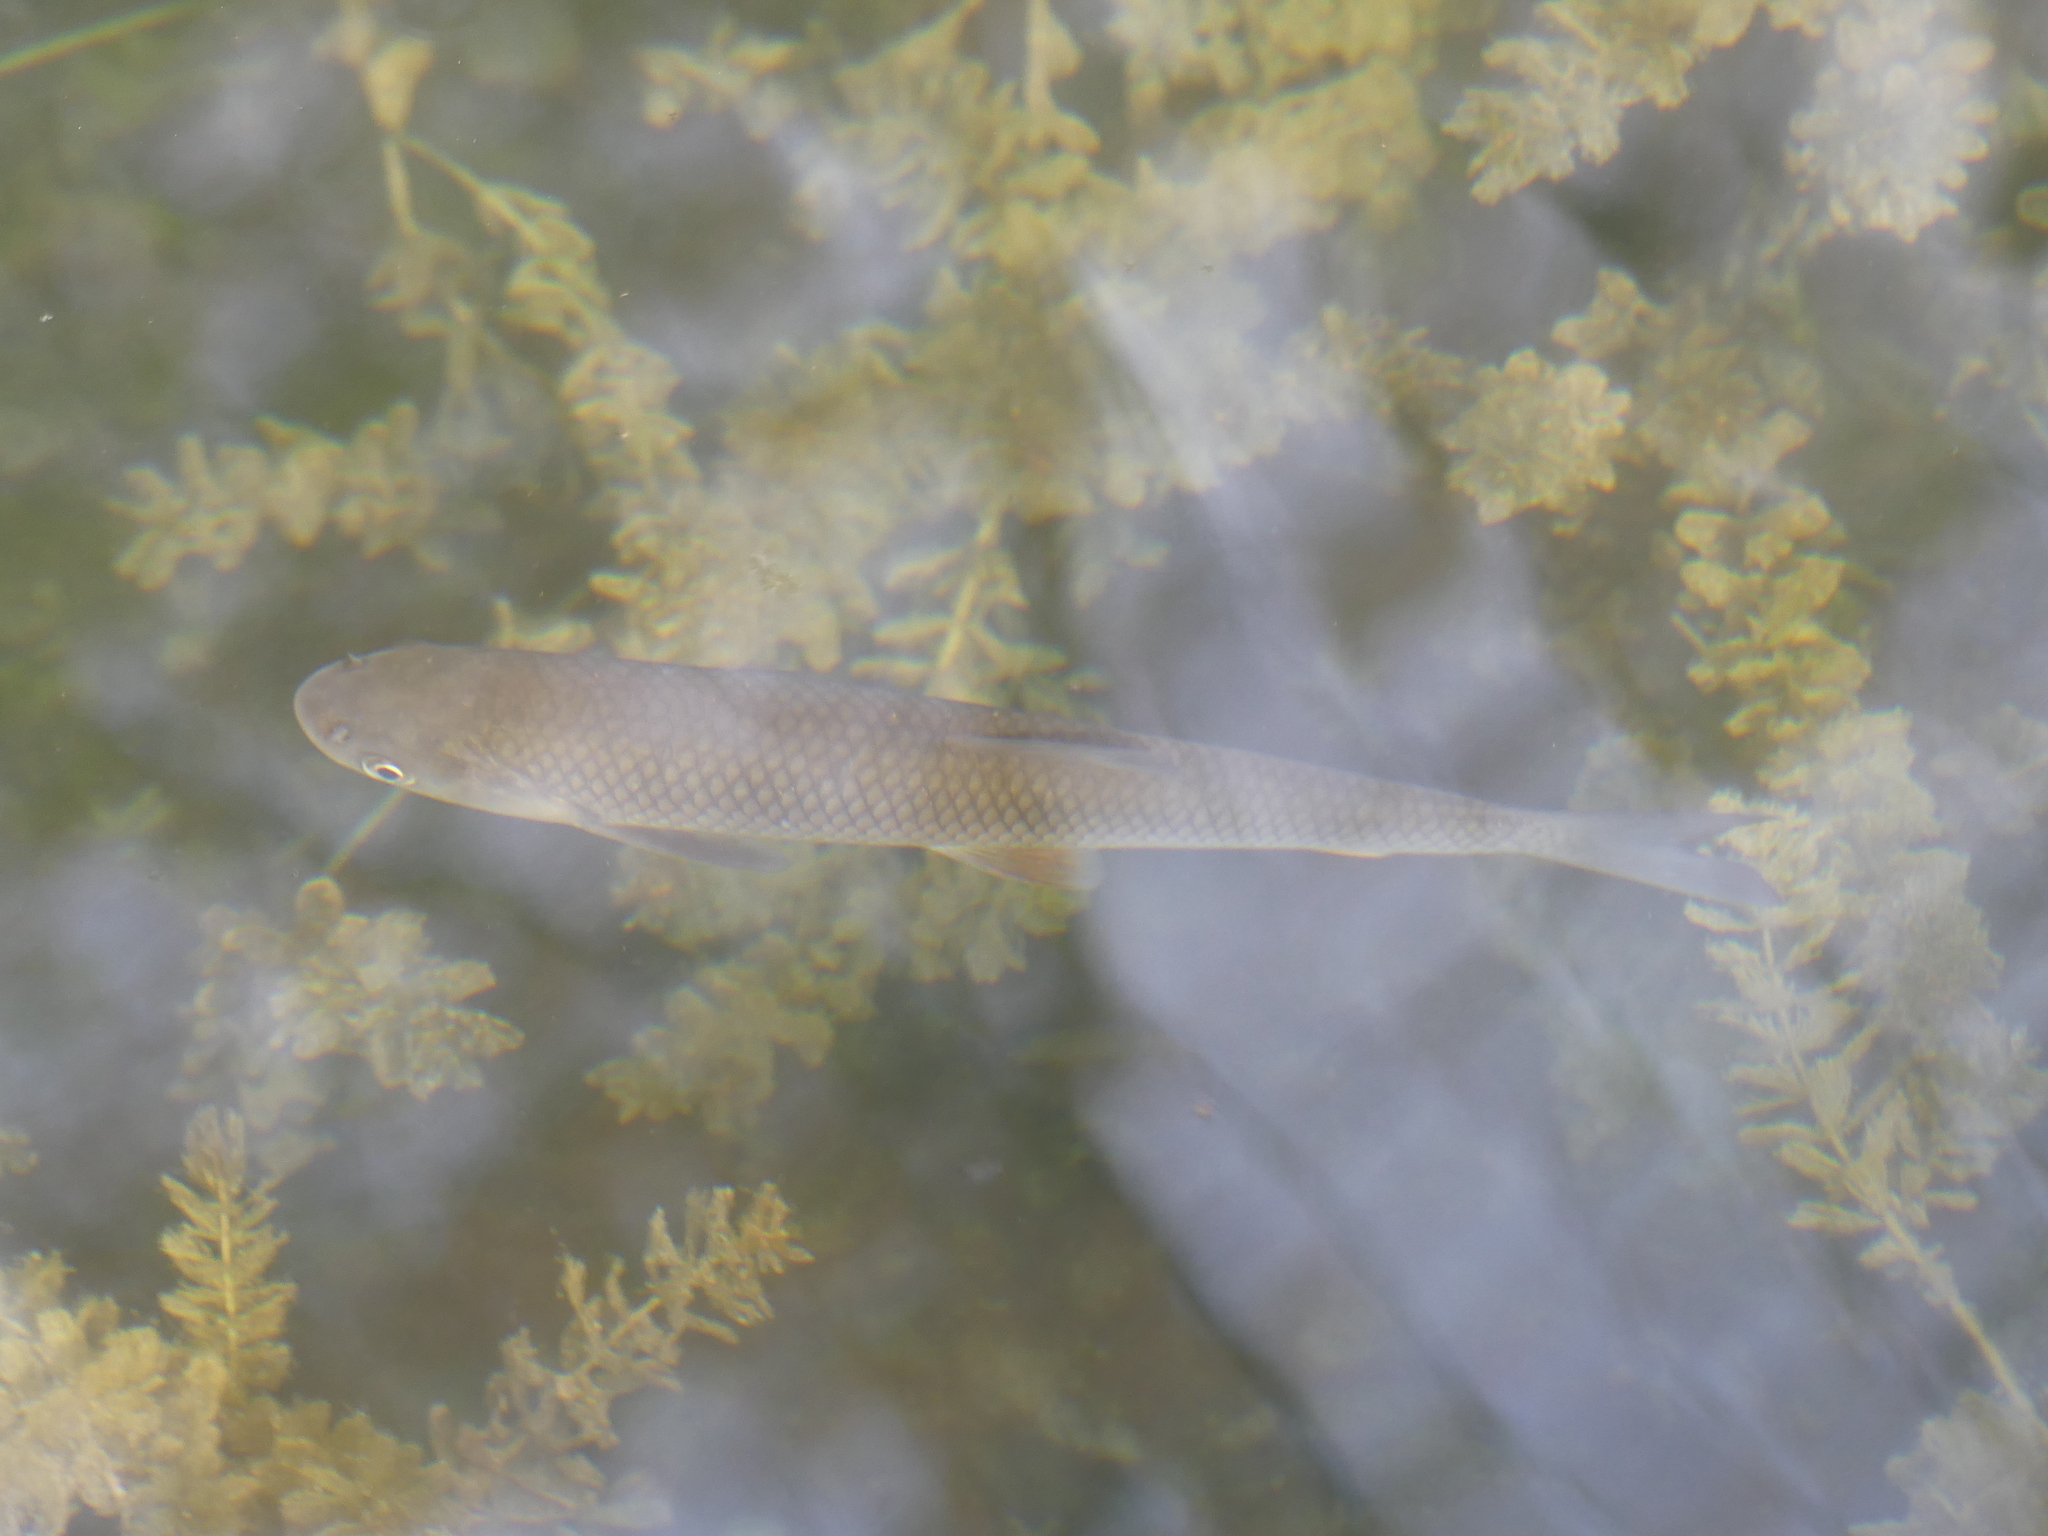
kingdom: Animalia
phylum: Chordata
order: Cypriniformes
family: Cyprinidae
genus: Squalius
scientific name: Squalius cephalus
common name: Chub
